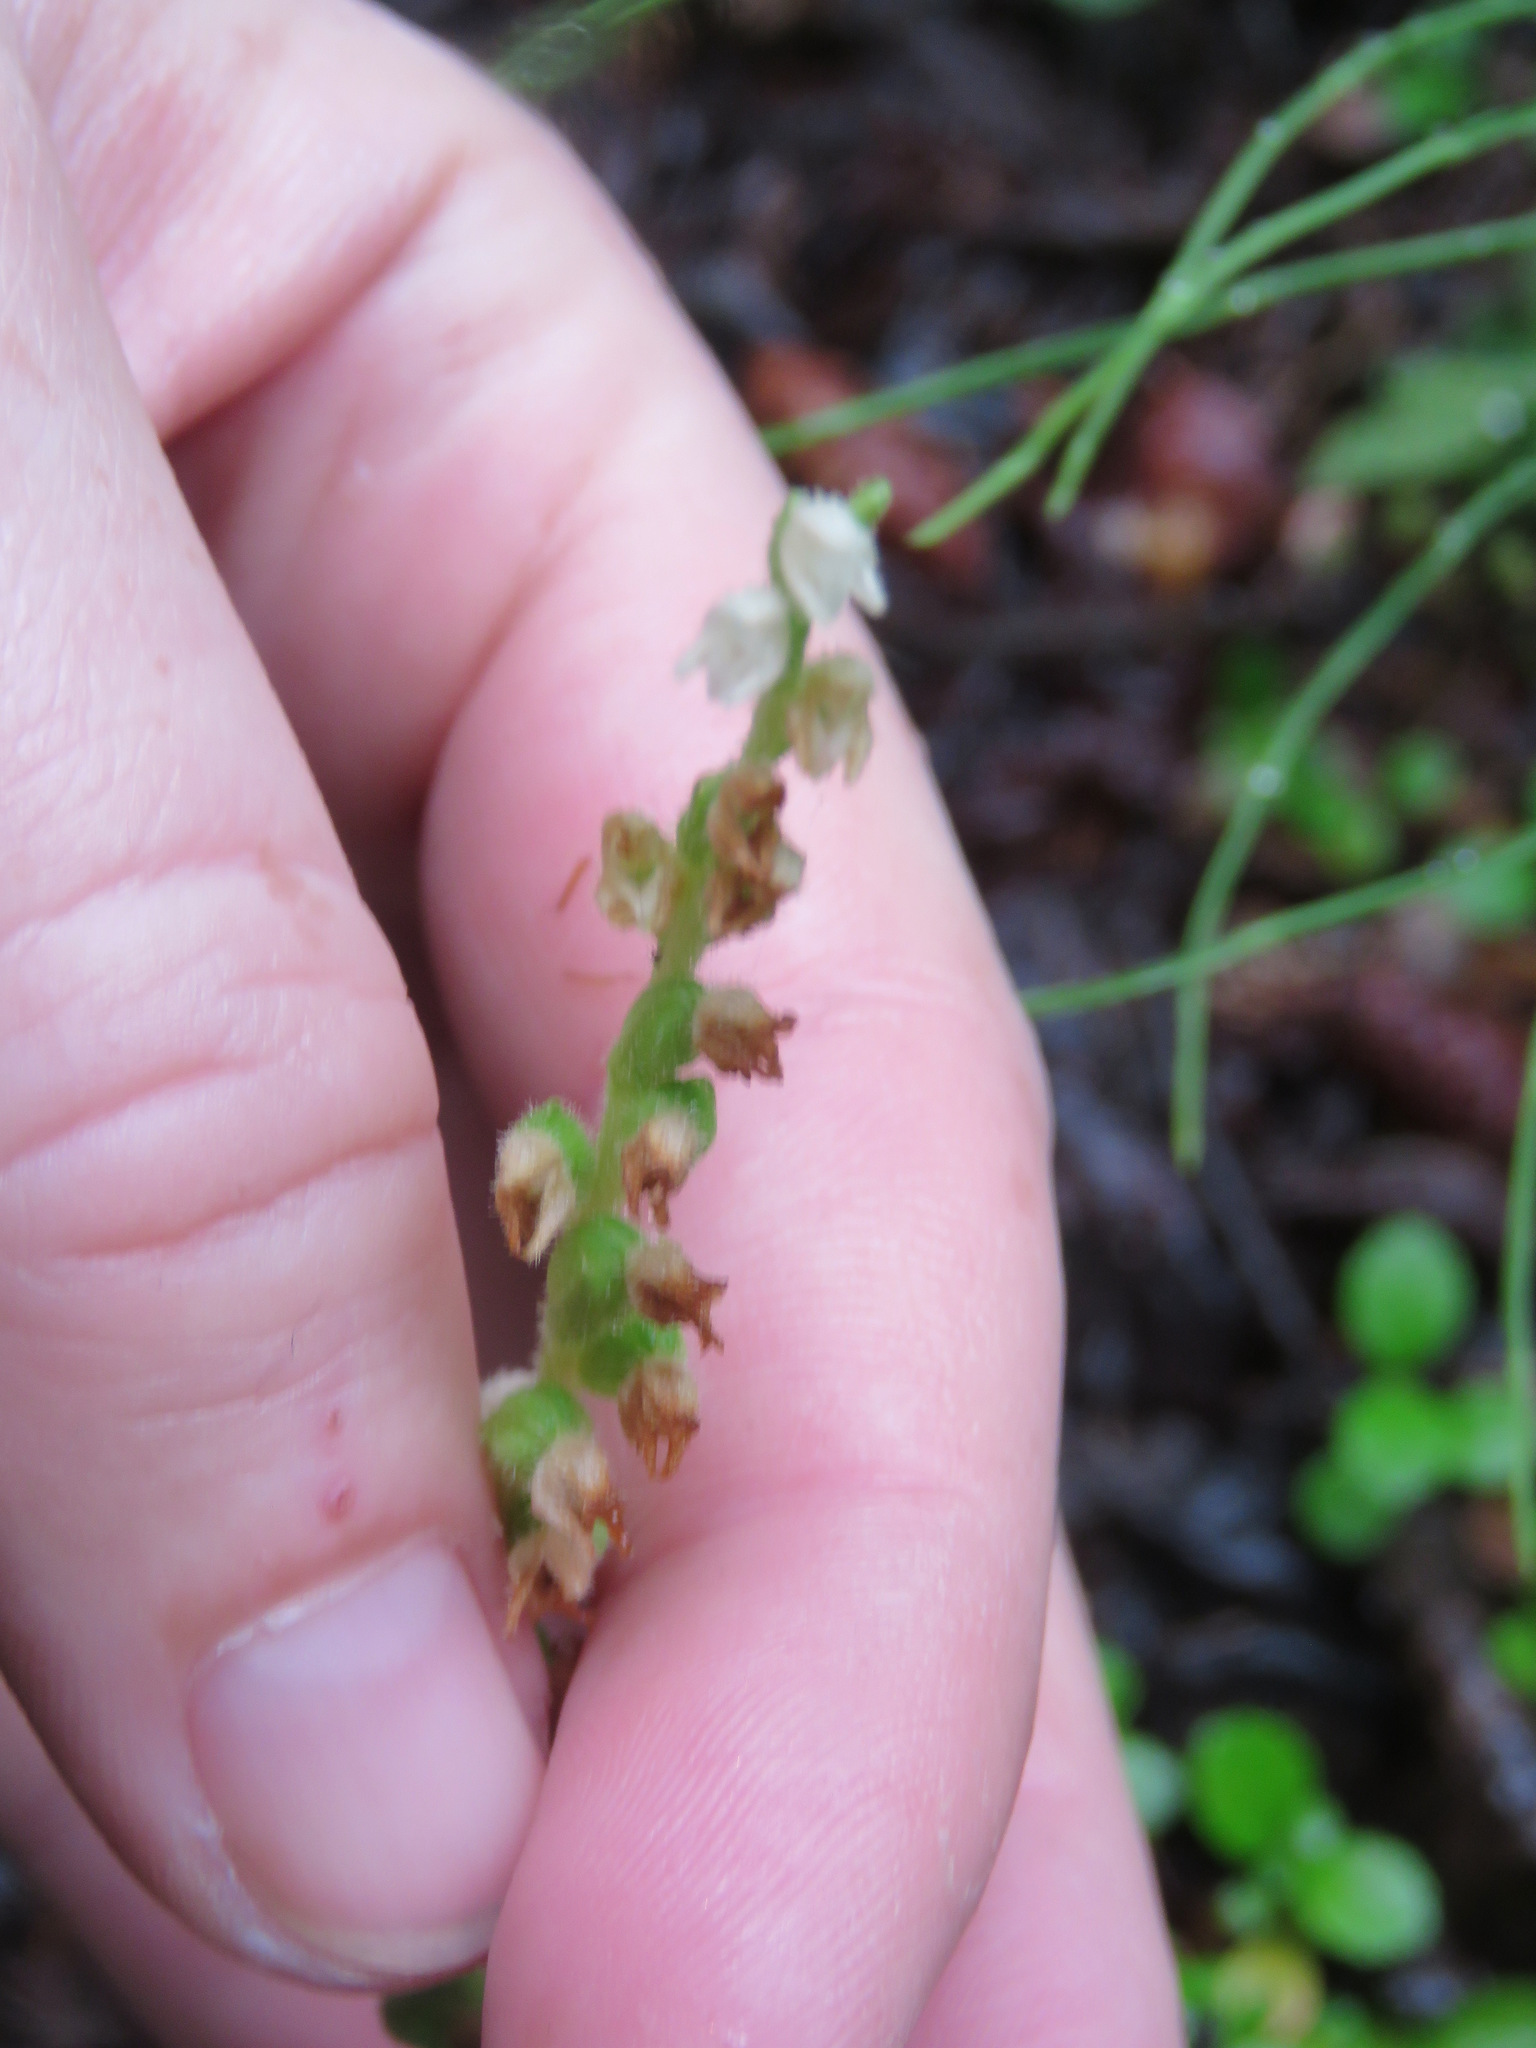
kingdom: Plantae
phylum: Tracheophyta
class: Liliopsida
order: Asparagales
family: Orchidaceae
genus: Goodyera
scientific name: Goodyera repens
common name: Creeping lady's-tresses
